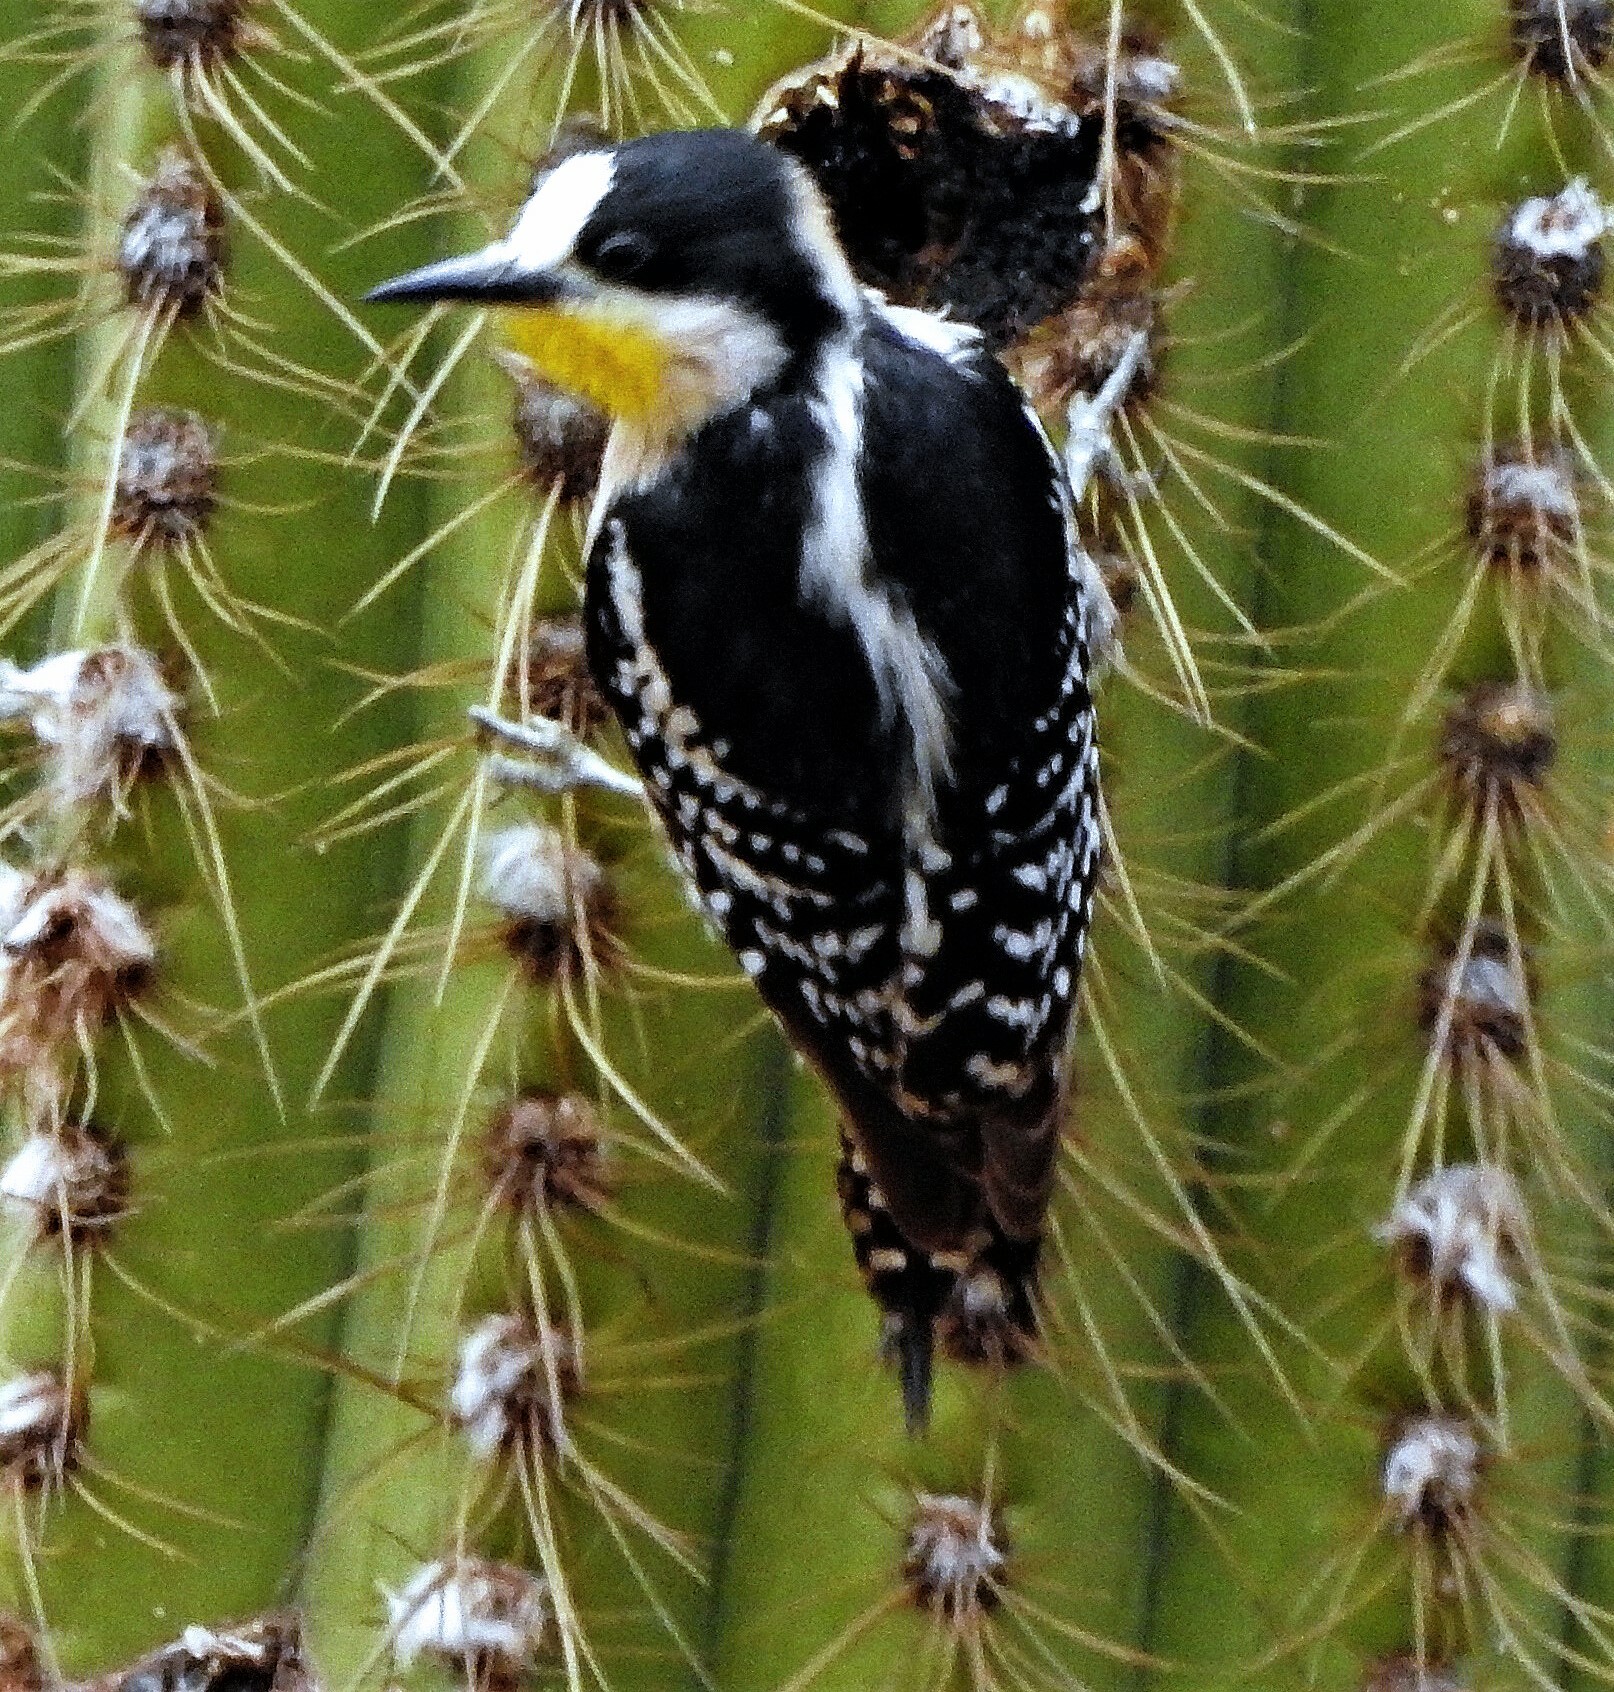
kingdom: Animalia
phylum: Chordata
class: Aves
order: Piciformes
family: Picidae
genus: Melanerpes
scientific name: Melanerpes cactorum
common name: White-fronted woodpecker
